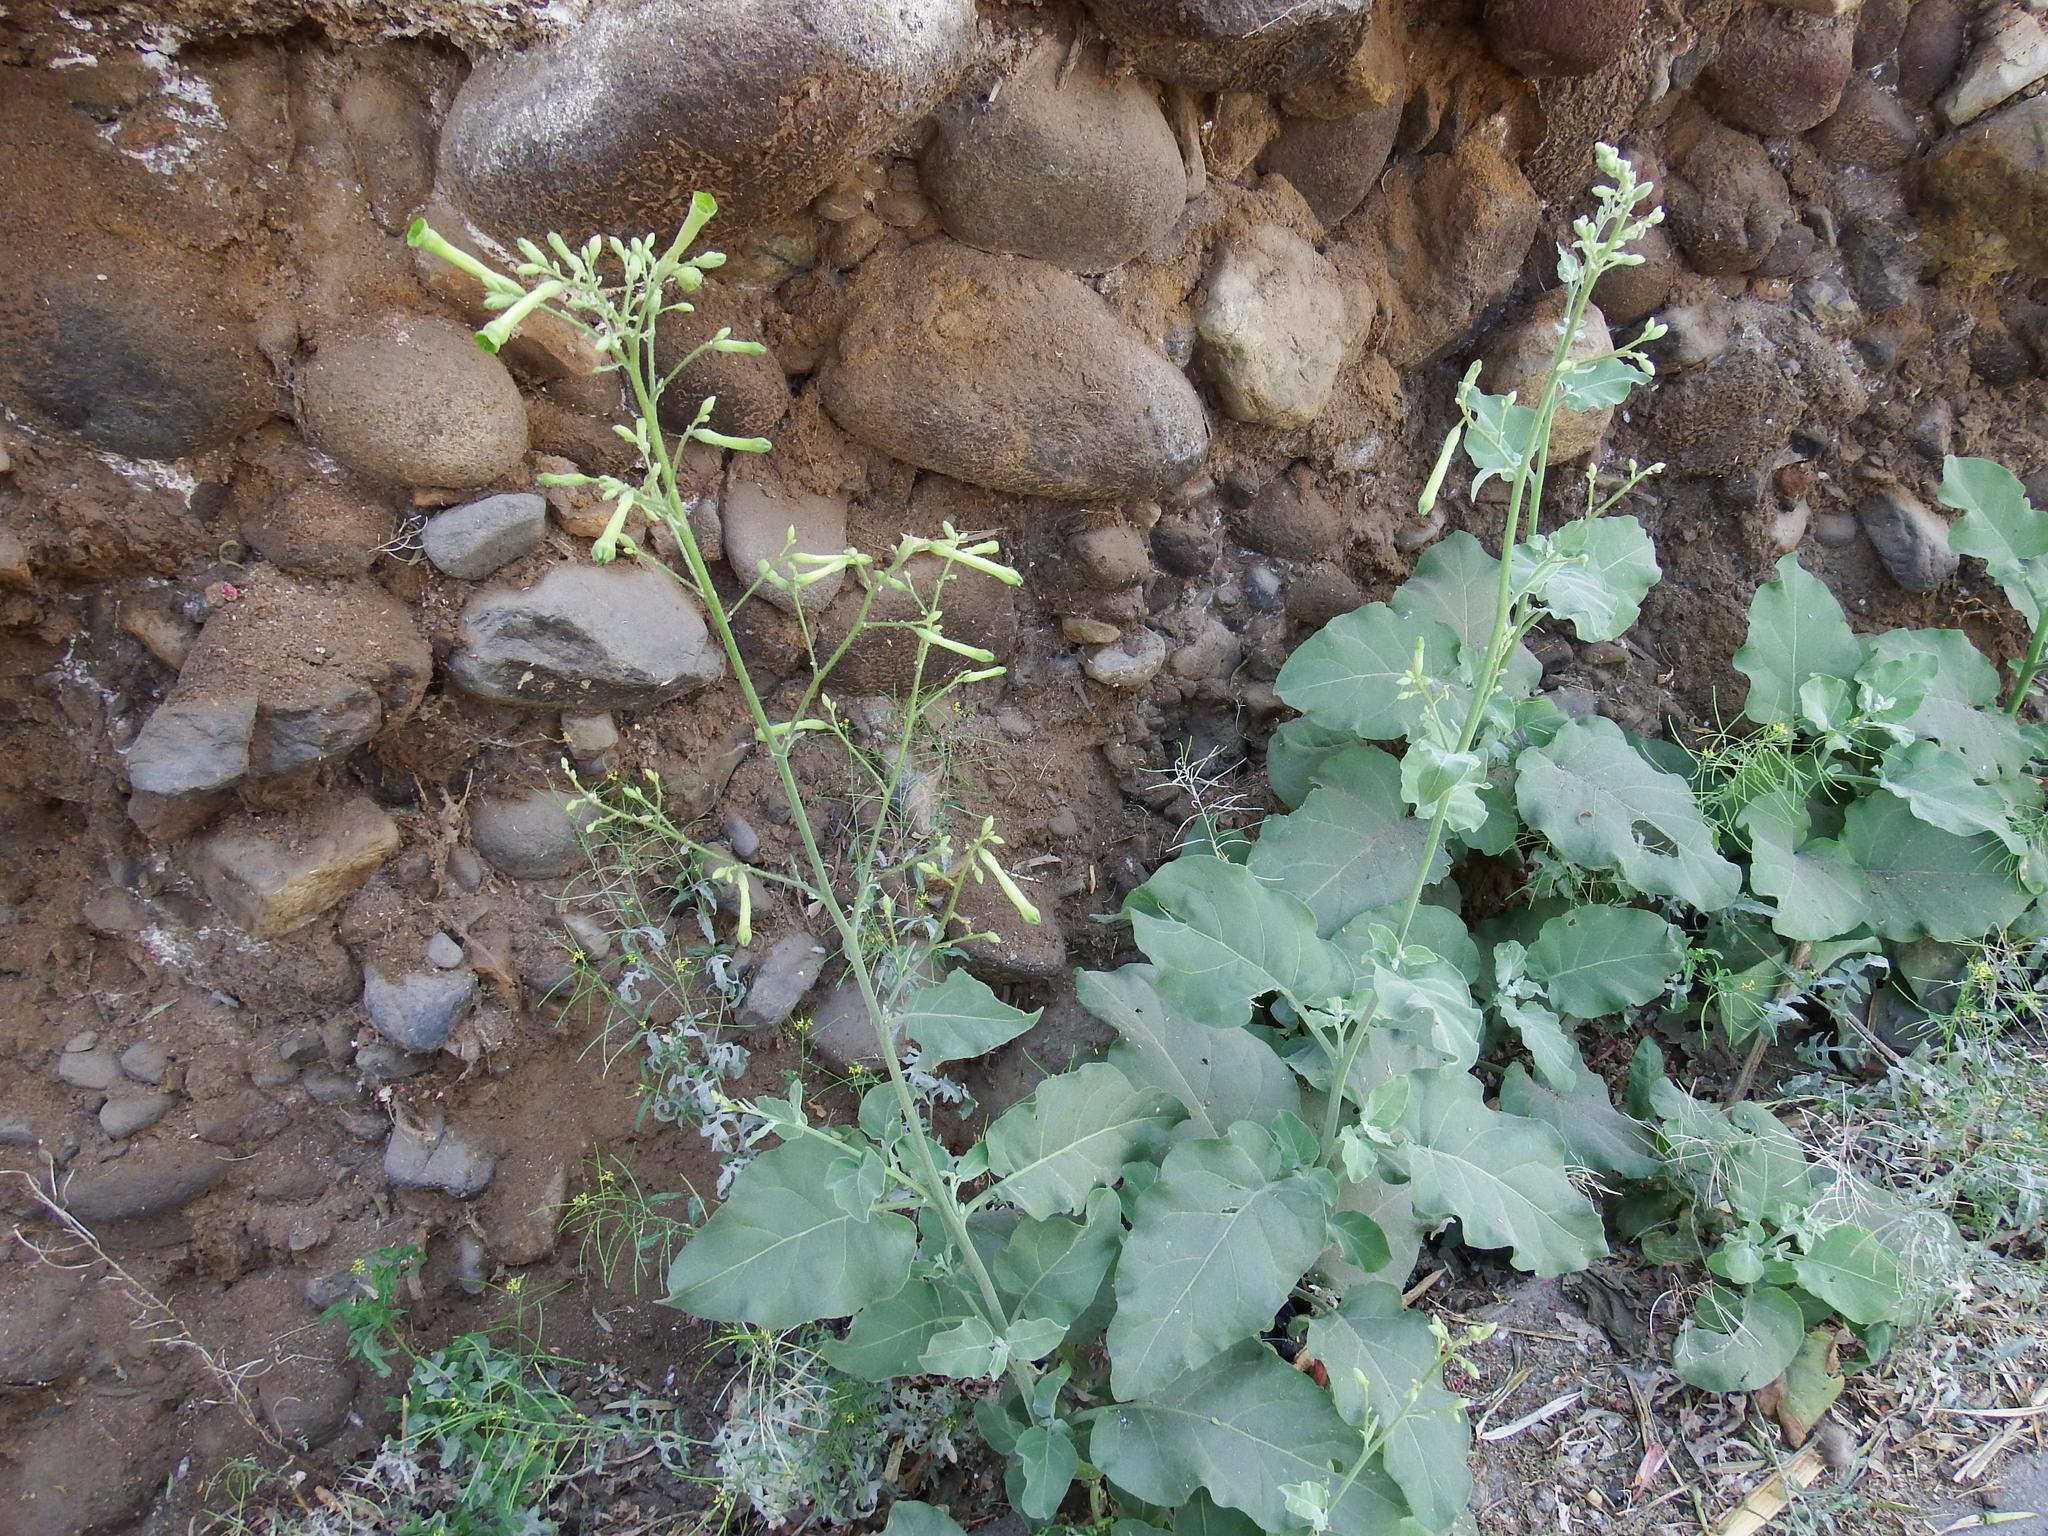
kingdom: Plantae
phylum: Tracheophyta
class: Magnoliopsida
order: Solanales
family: Solanaceae
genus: Nicotiana
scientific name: Nicotiana paniculata
